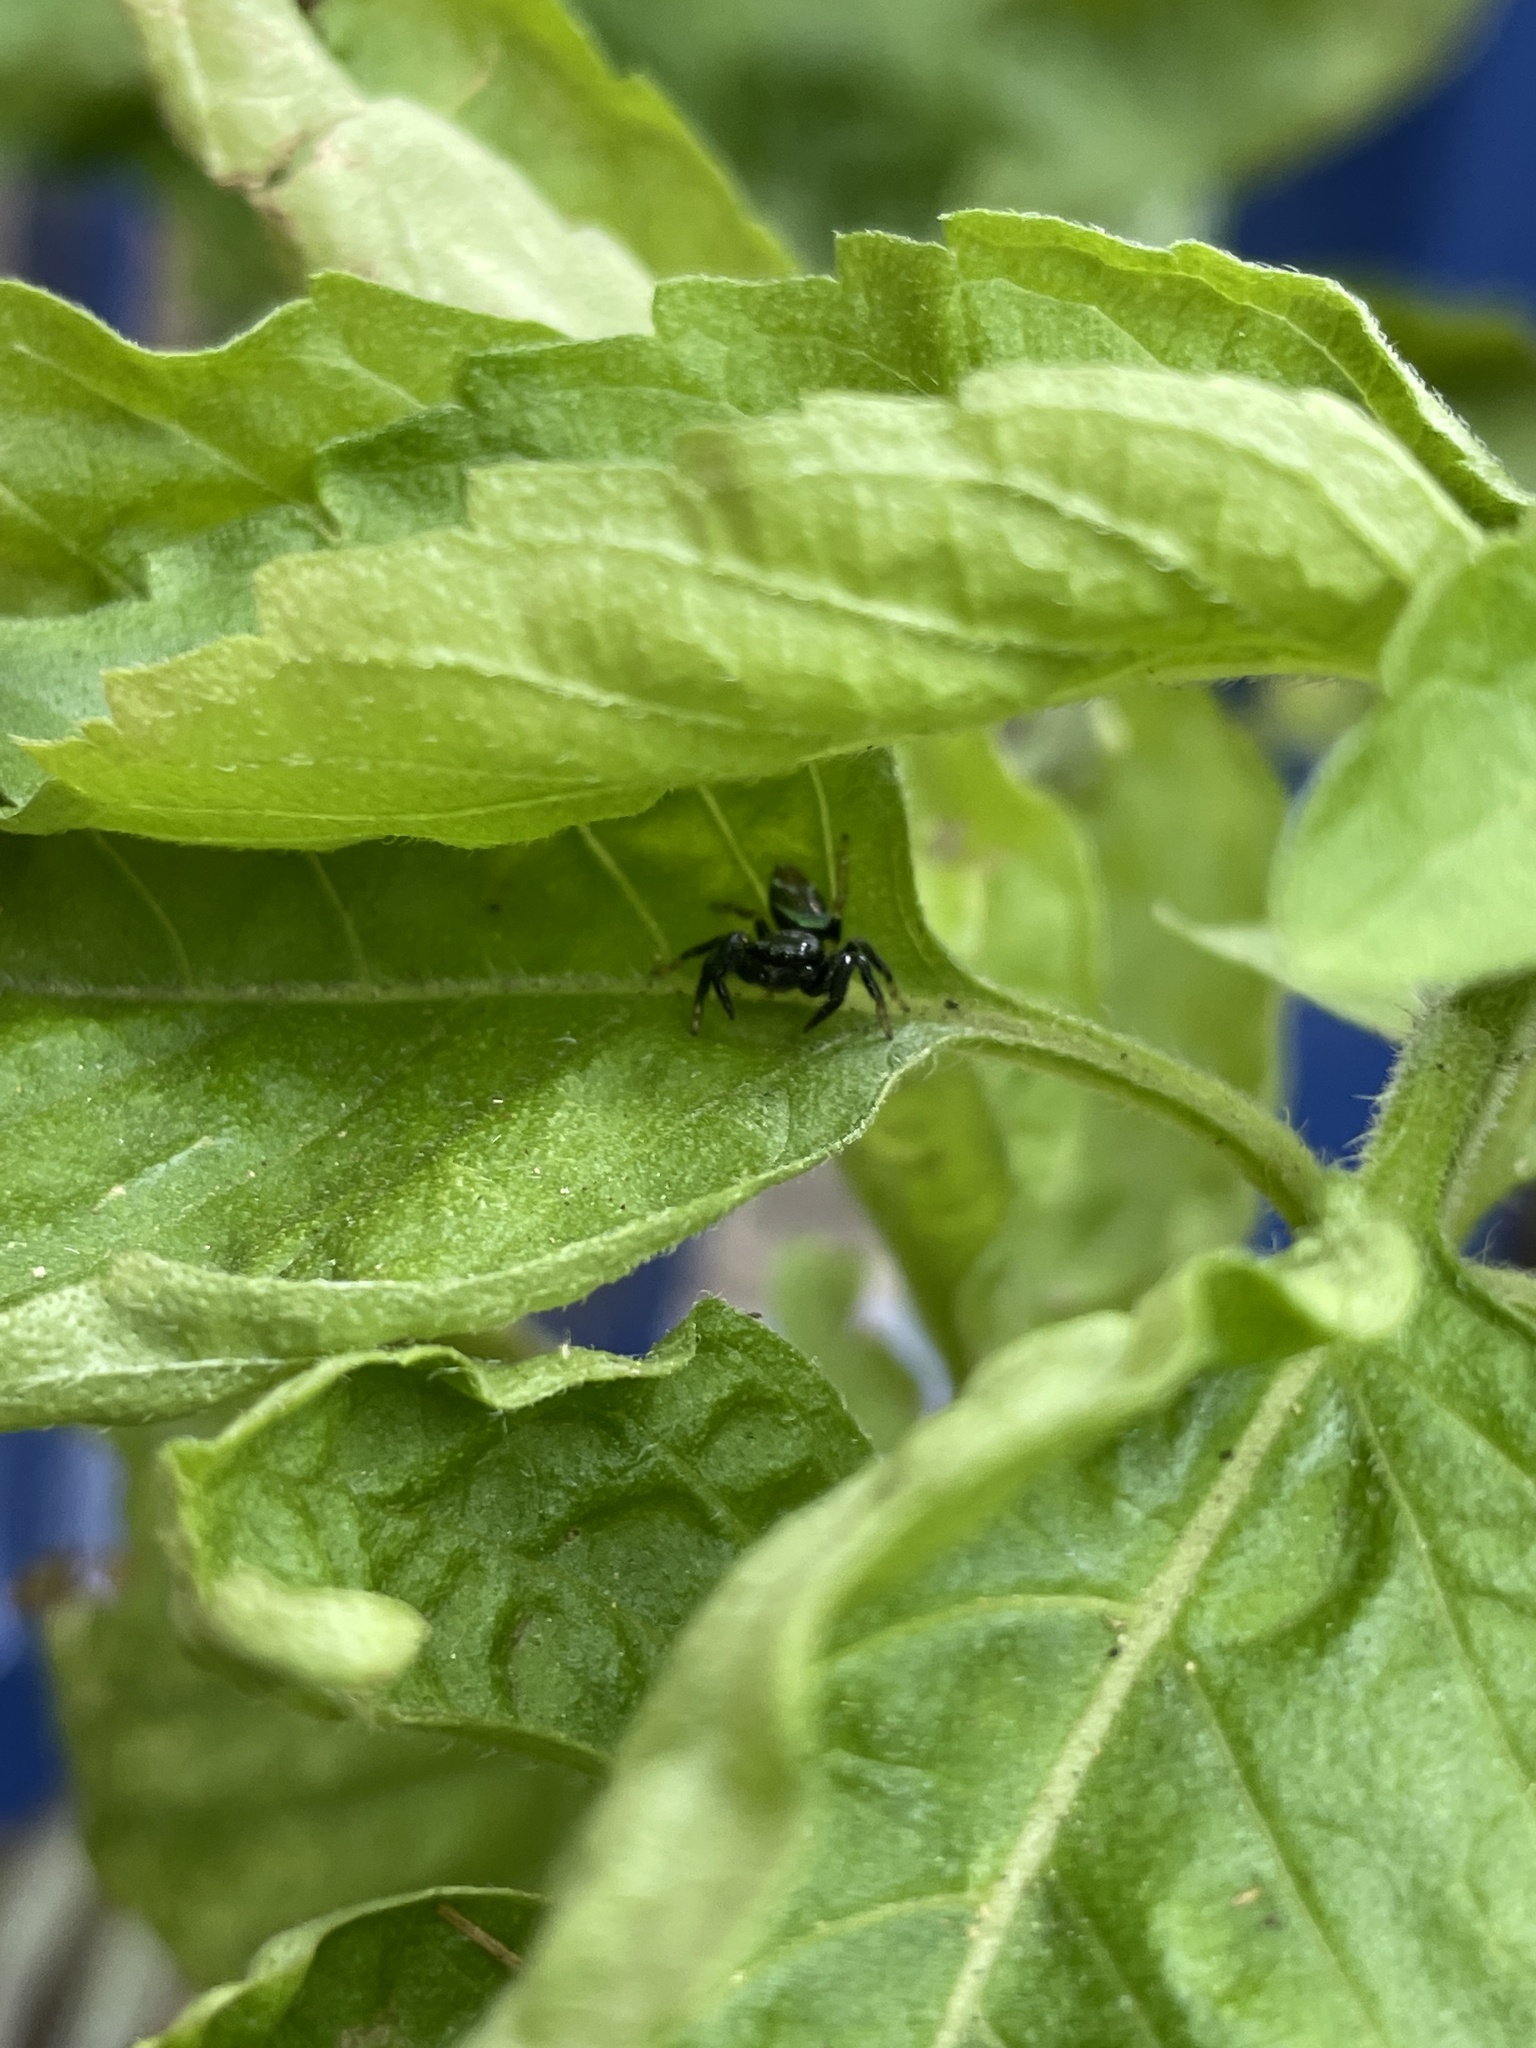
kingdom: Animalia
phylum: Arthropoda
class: Arachnida
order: Araneae
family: Salticidae
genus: Thiania
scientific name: Thiania bhamoensis
